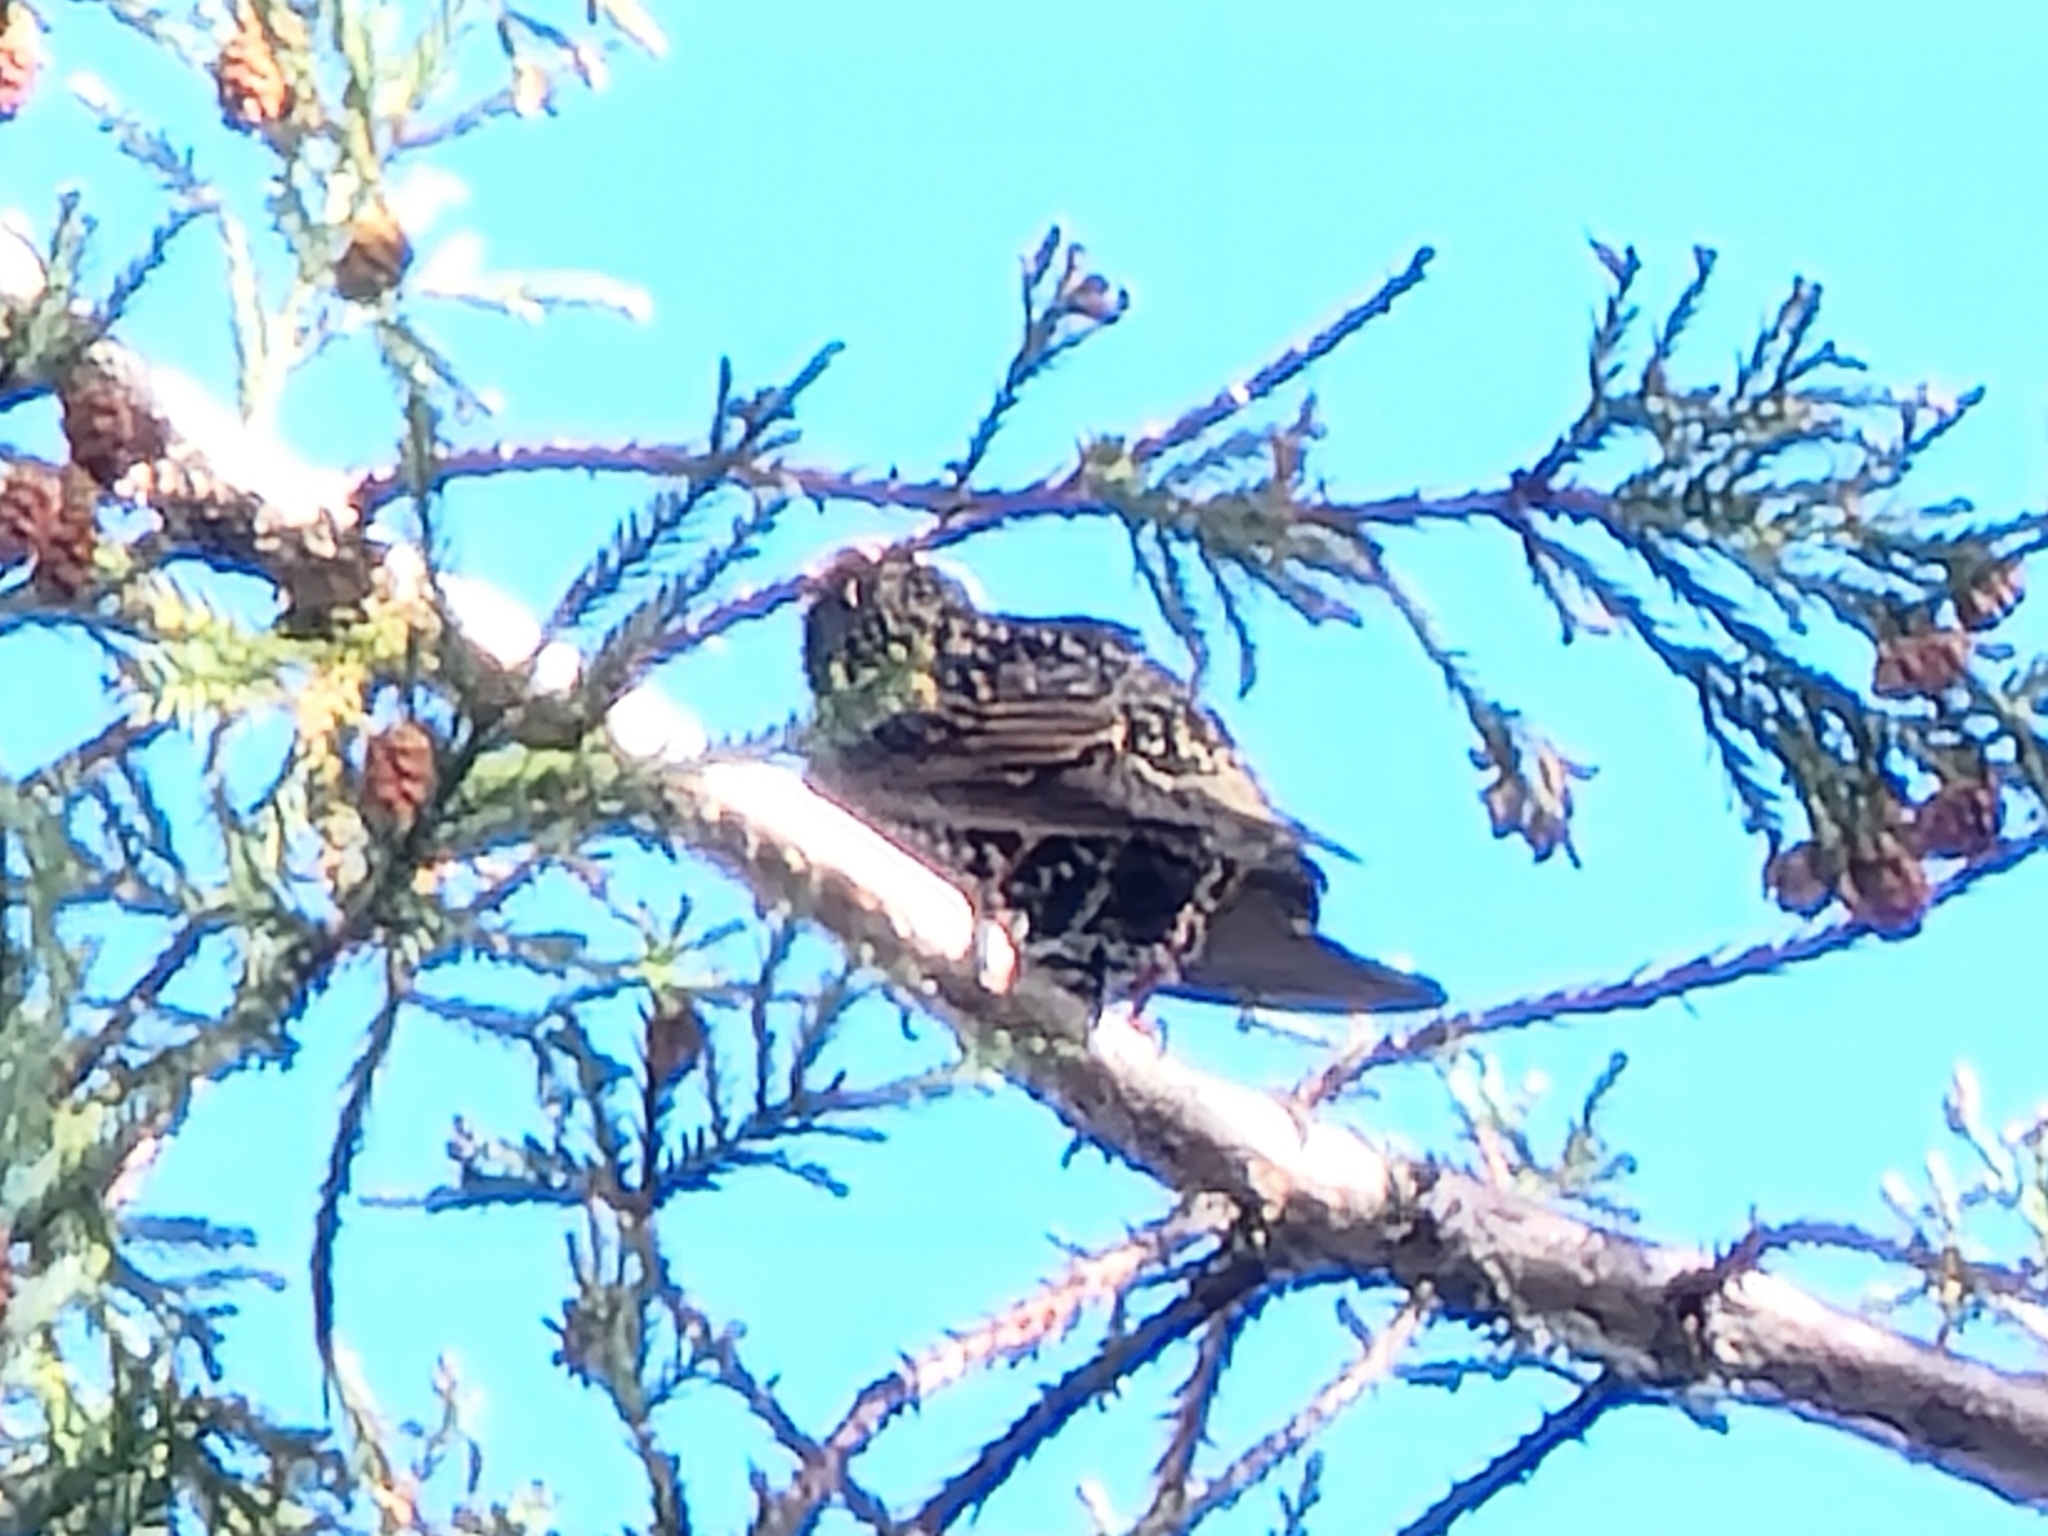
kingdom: Animalia
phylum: Chordata
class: Aves
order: Passeriformes
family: Sturnidae
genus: Sturnus
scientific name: Sturnus vulgaris
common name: Common starling
